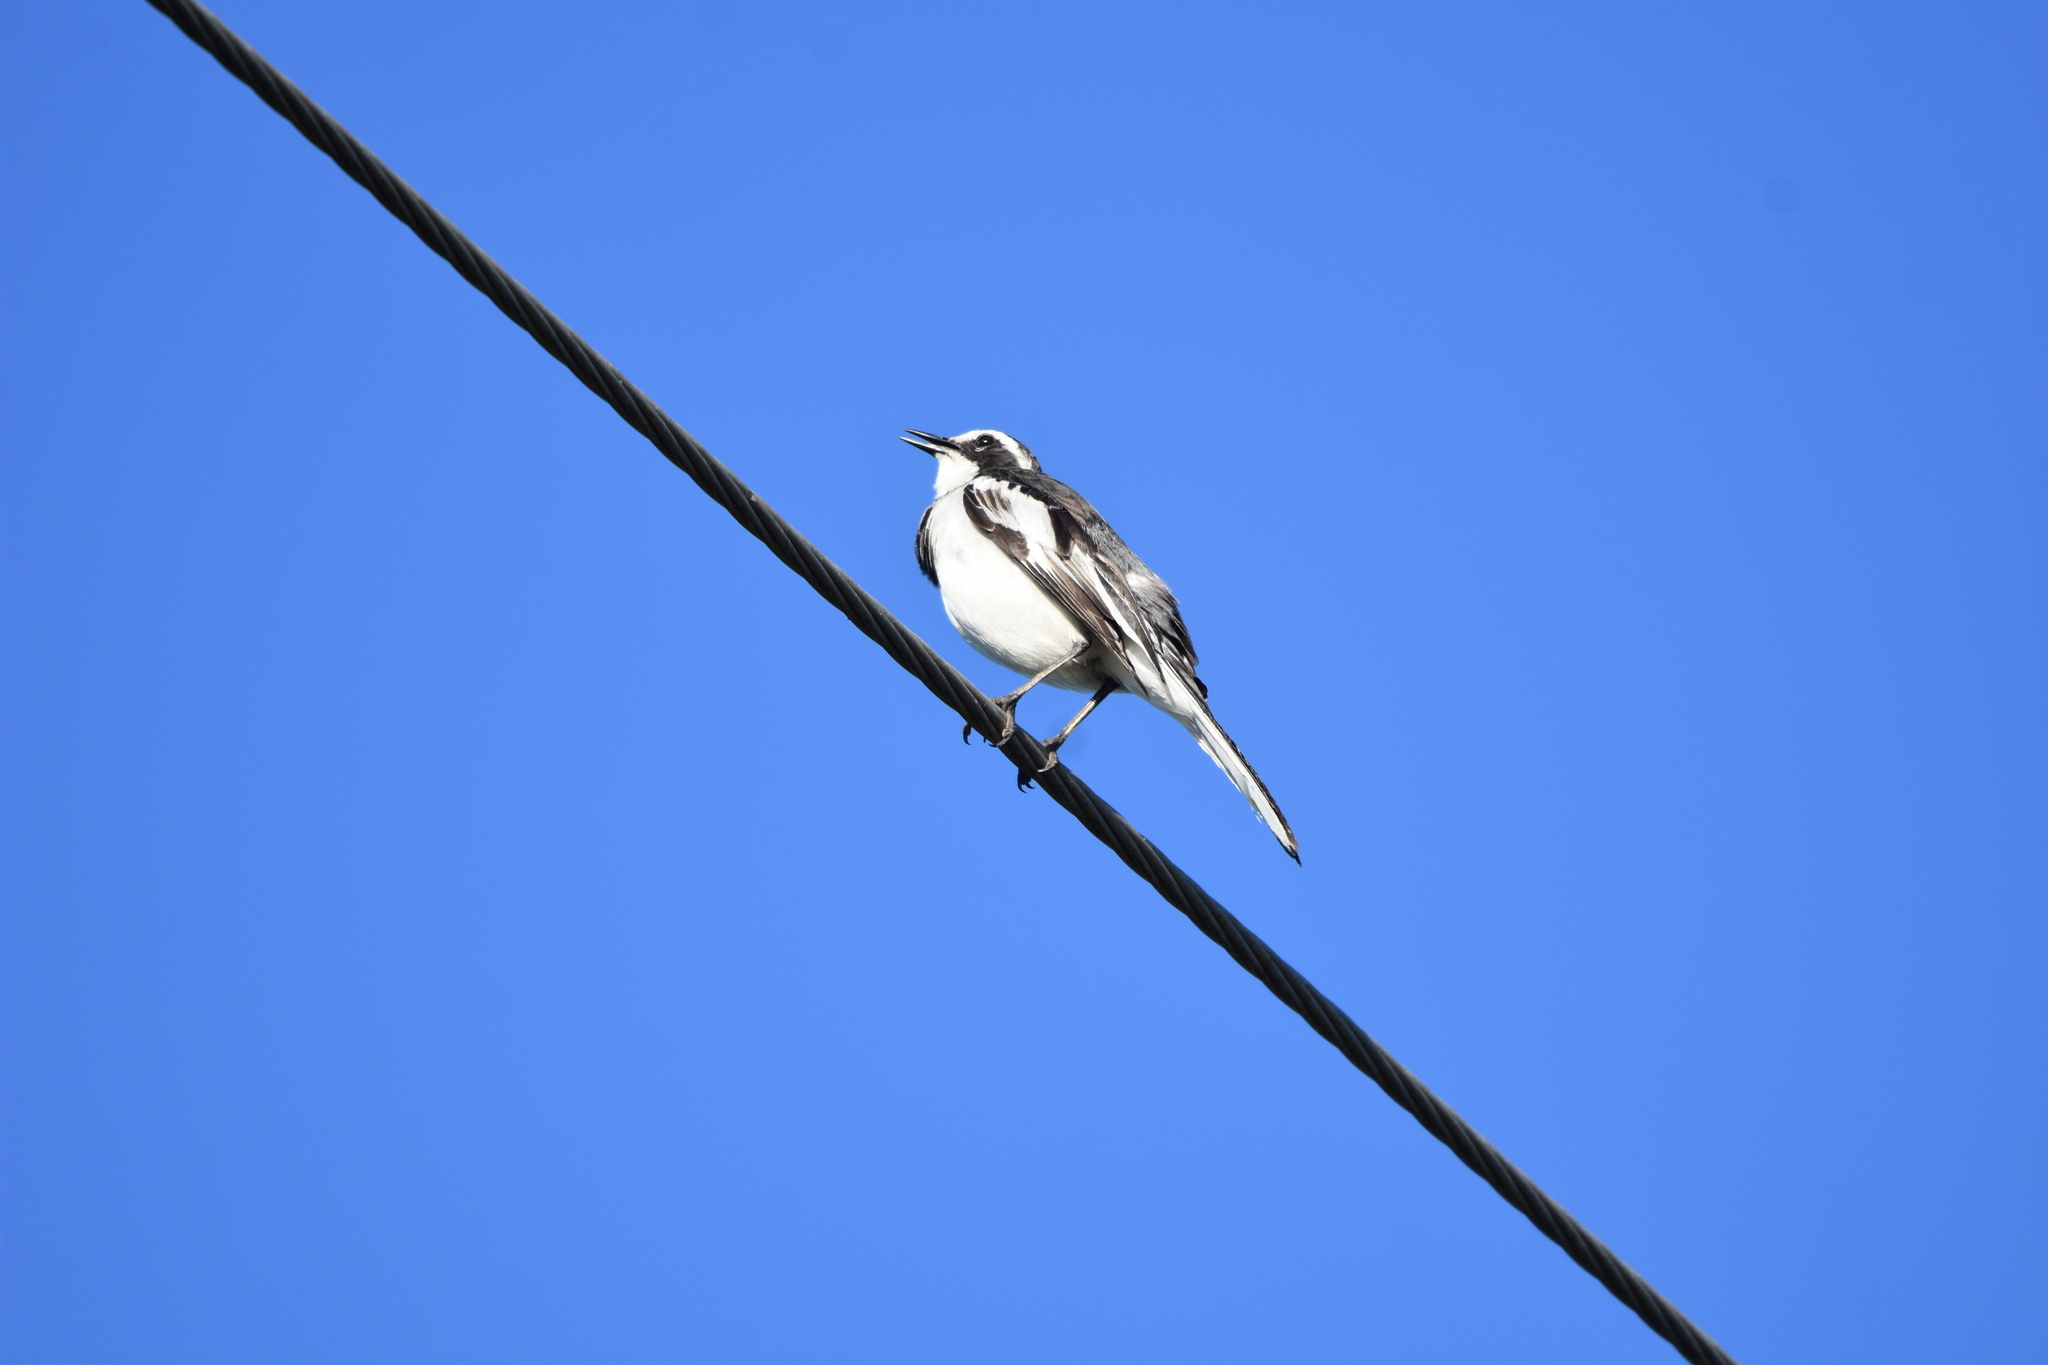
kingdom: Animalia
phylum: Chordata
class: Aves
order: Passeriformes
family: Motacillidae
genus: Motacilla
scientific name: Motacilla aguimp
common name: African pied wagtail
